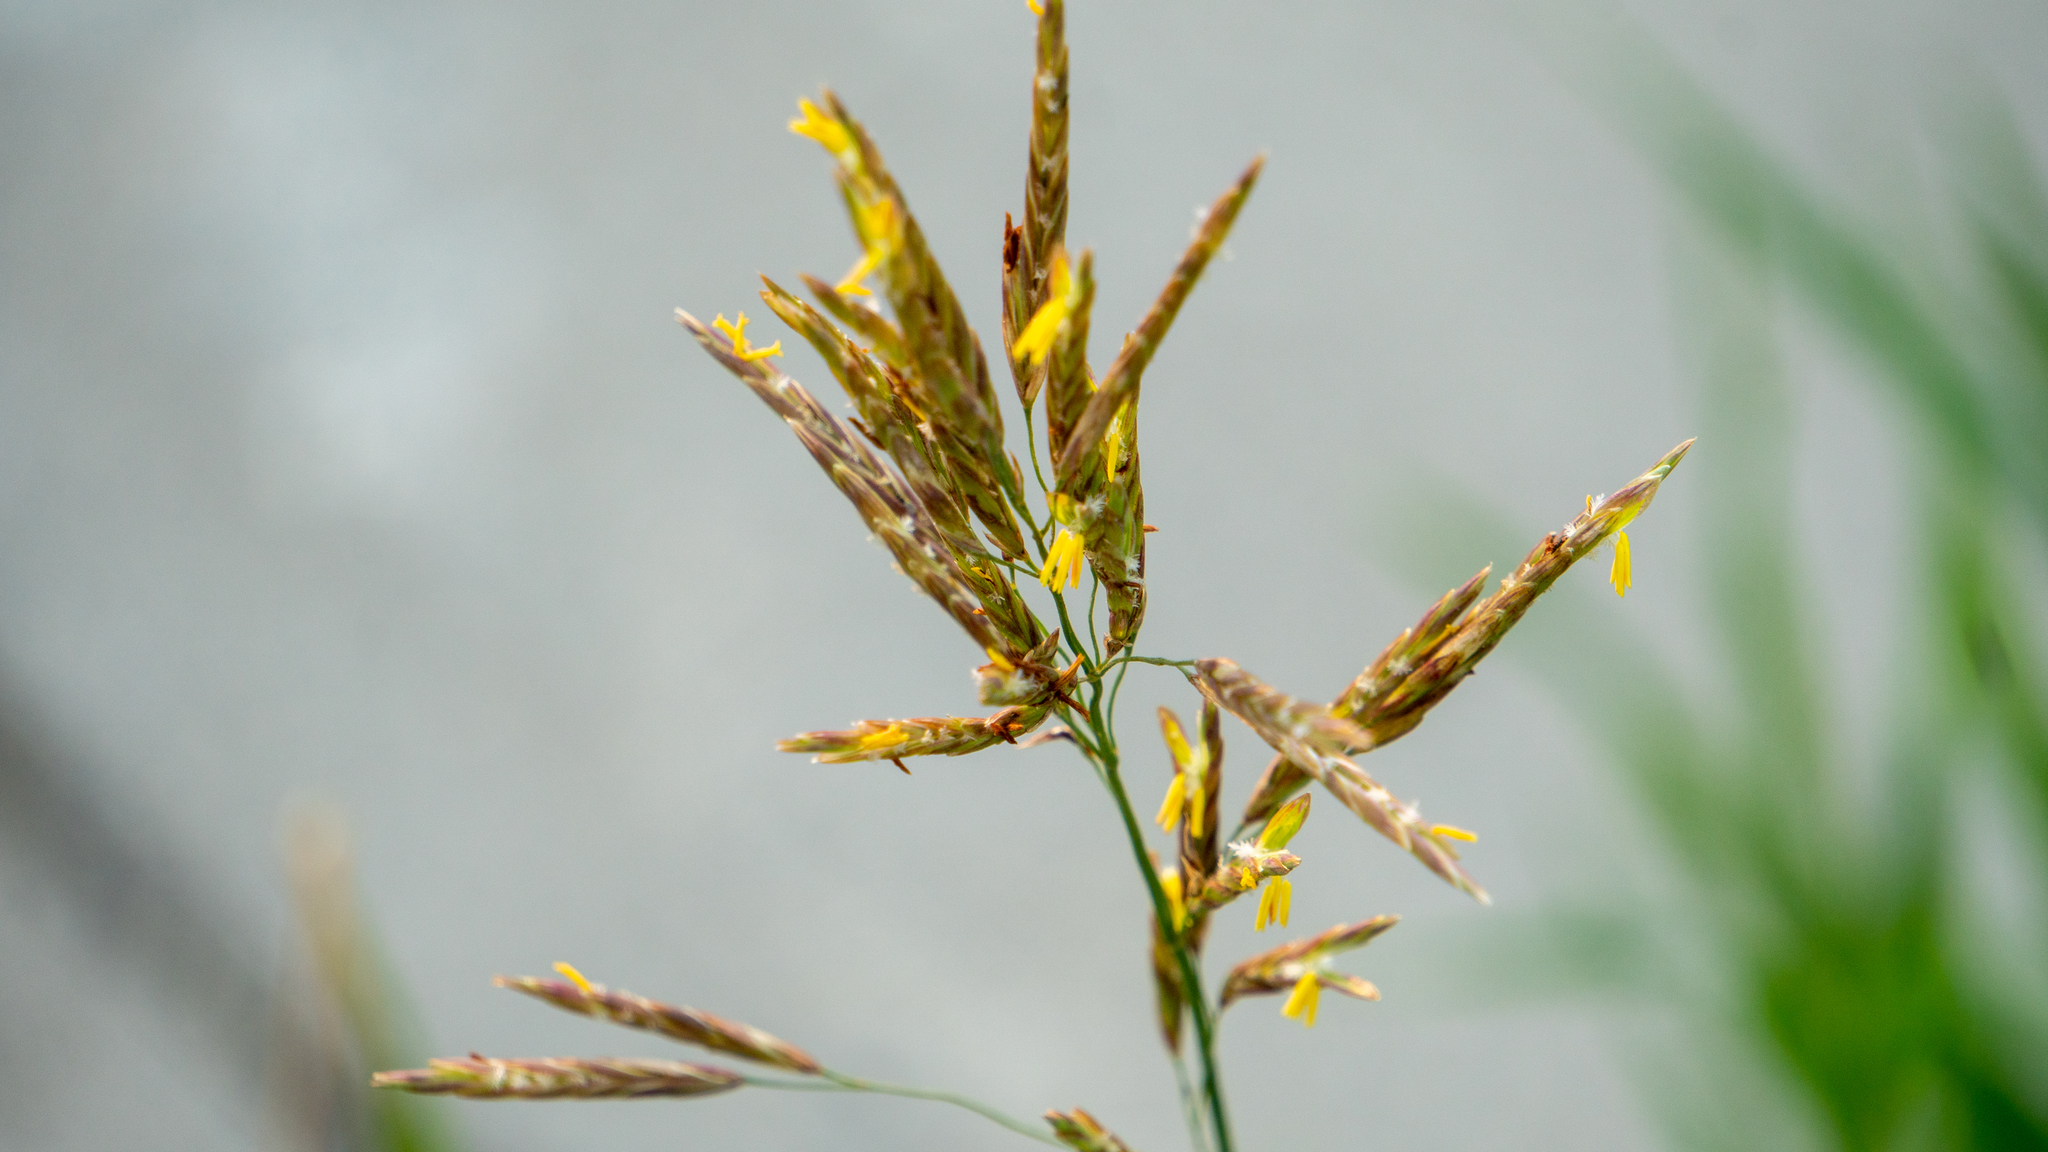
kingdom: Plantae
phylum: Tracheophyta
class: Liliopsida
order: Poales
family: Poaceae
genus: Bromus
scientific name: Bromus inermis
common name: Smooth brome
